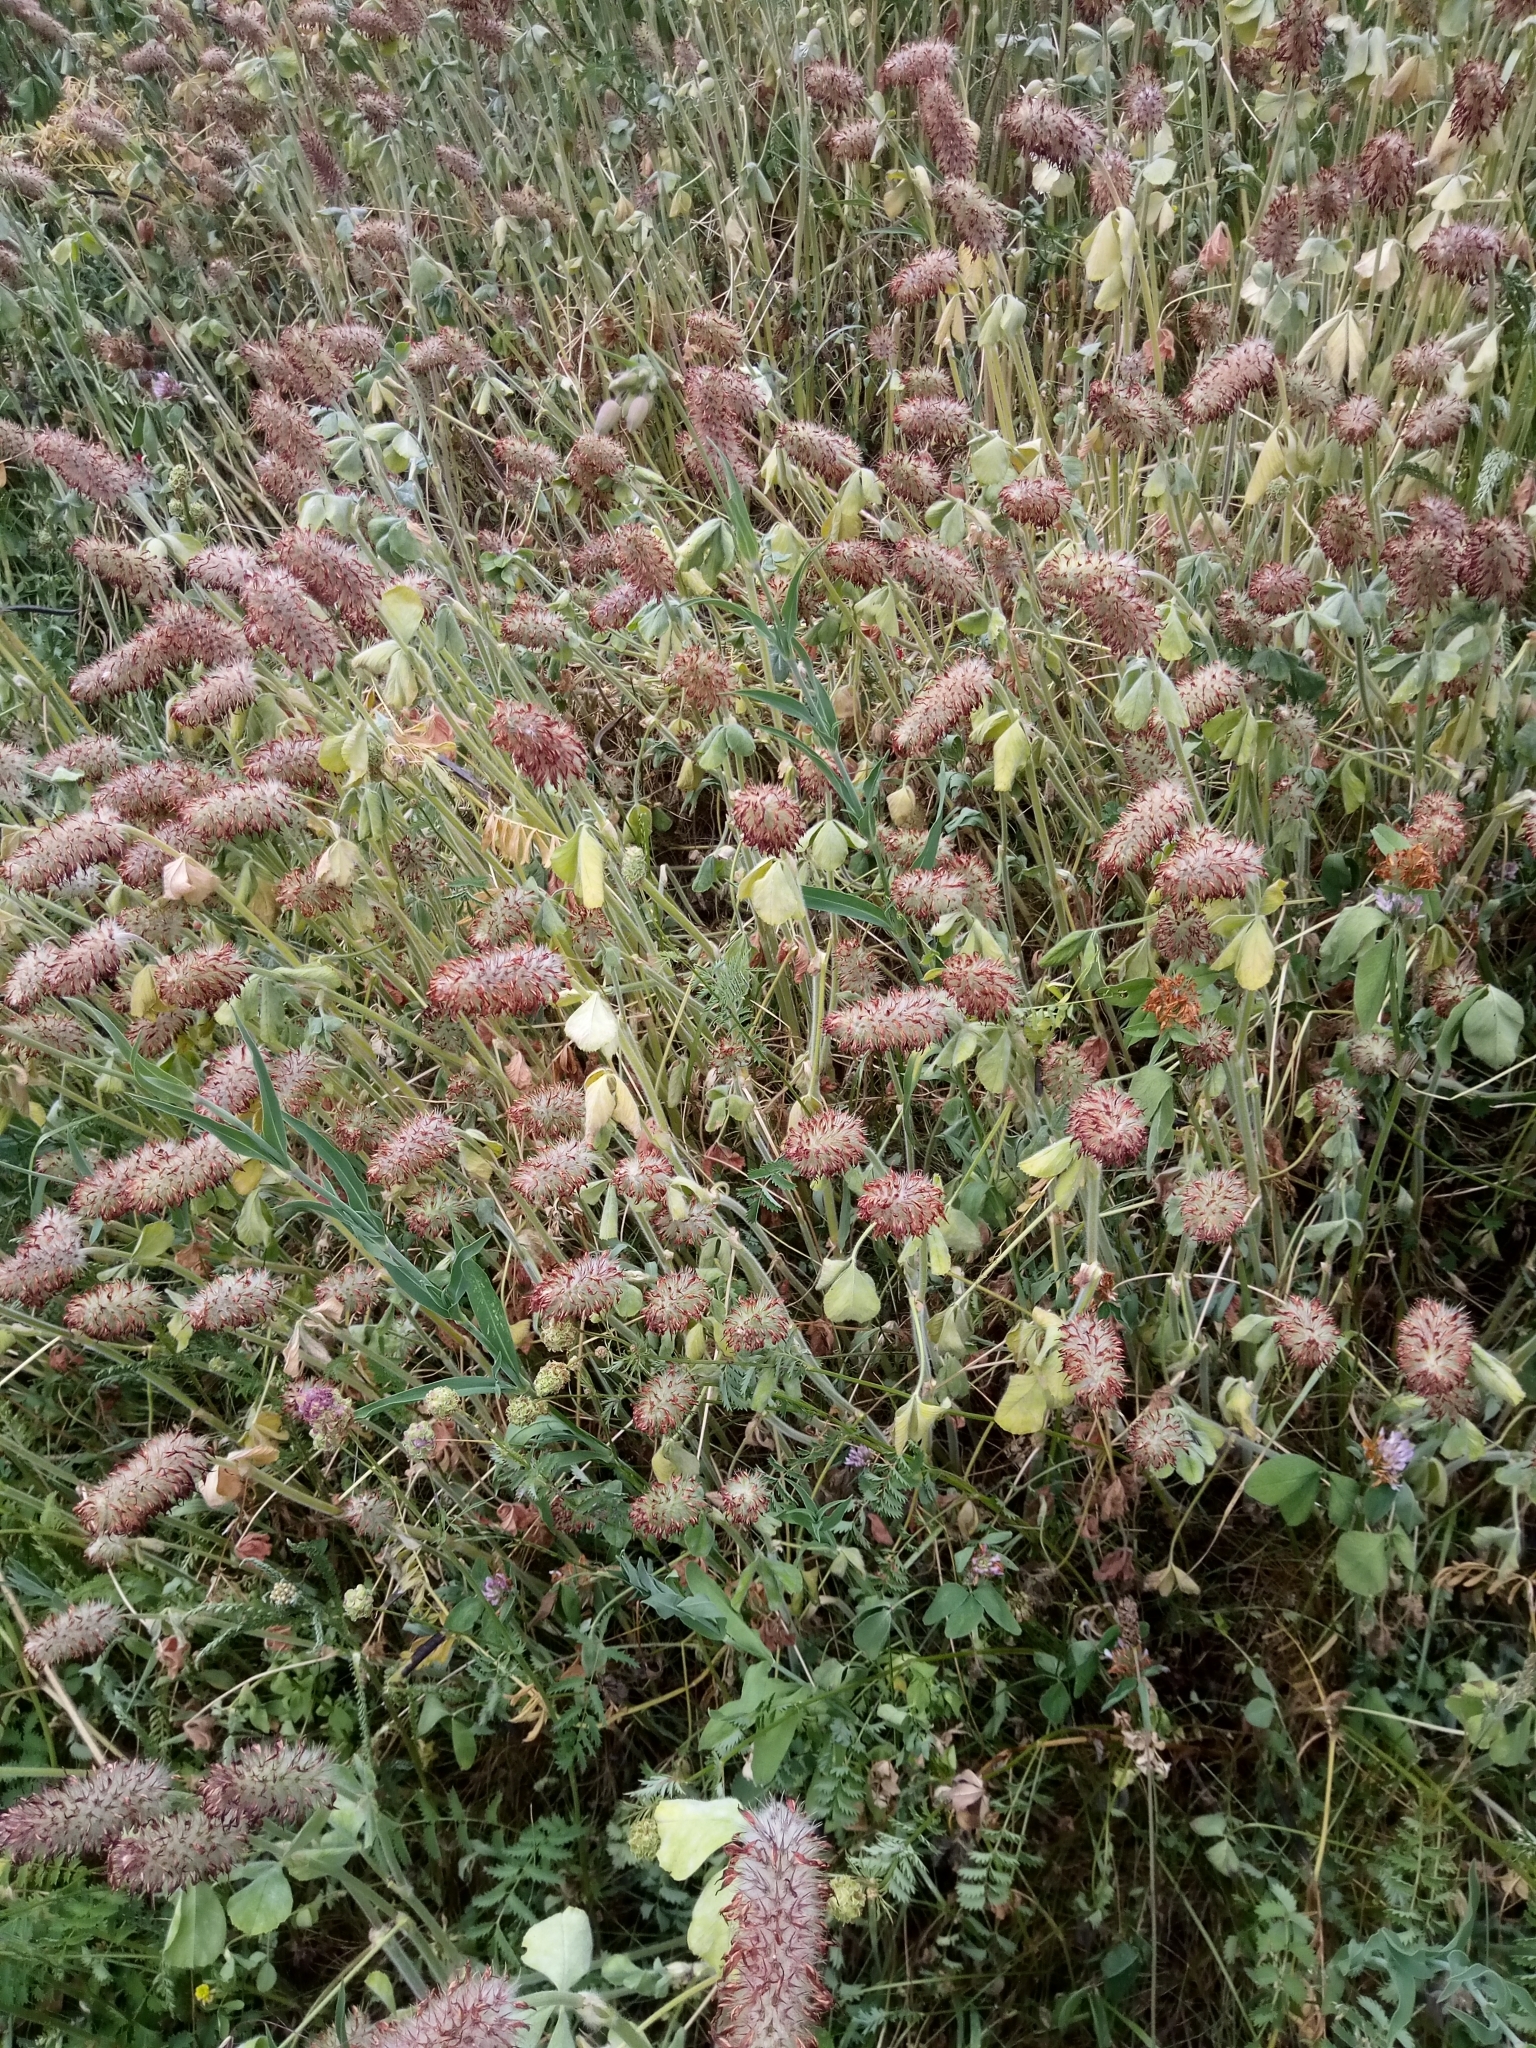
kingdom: Plantae
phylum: Tracheophyta
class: Magnoliopsida
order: Fabales
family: Fabaceae
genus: Trifolium
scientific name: Trifolium incarnatum
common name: Crimson clover
